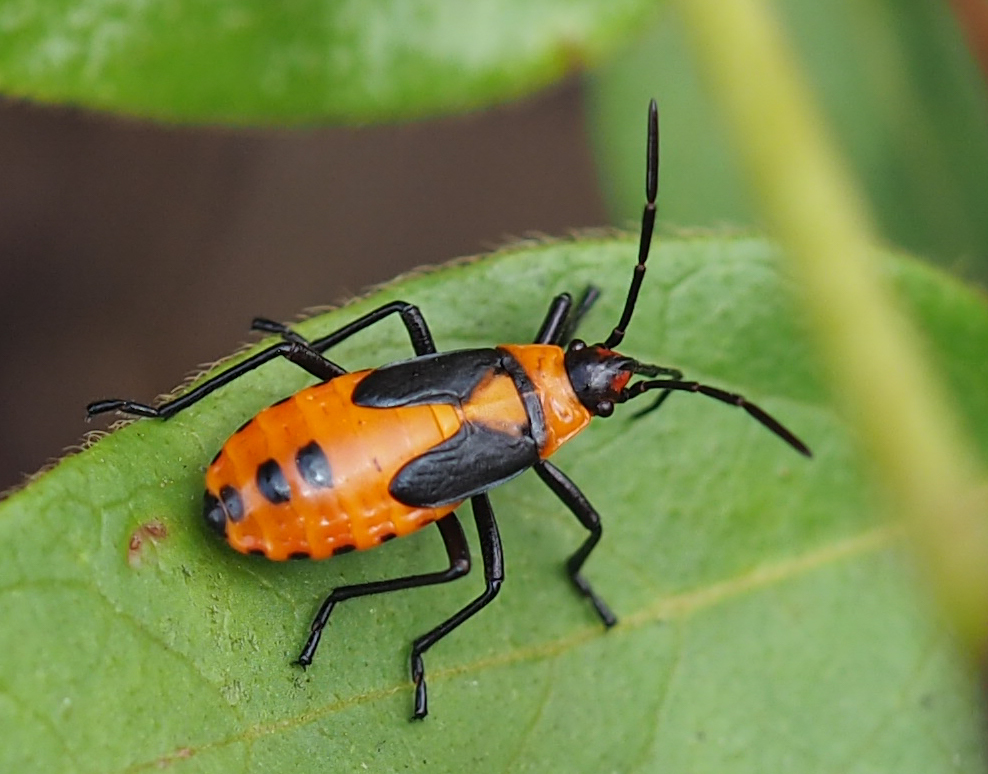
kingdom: Animalia
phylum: Arthropoda
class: Insecta
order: Hemiptera
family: Lygaeidae
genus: Oncopeltus
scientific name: Oncopeltus fasciatus
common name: Large milkweed bug
